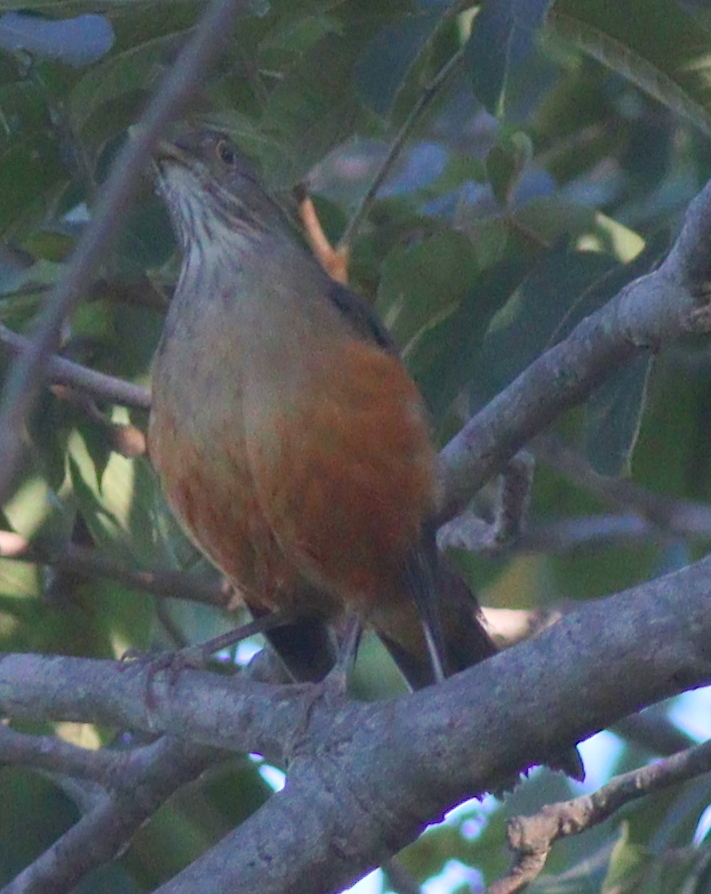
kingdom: Animalia
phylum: Chordata
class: Aves
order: Passeriformes
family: Turdidae
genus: Turdus
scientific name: Turdus rufiventris
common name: Rufous-bellied thrush
